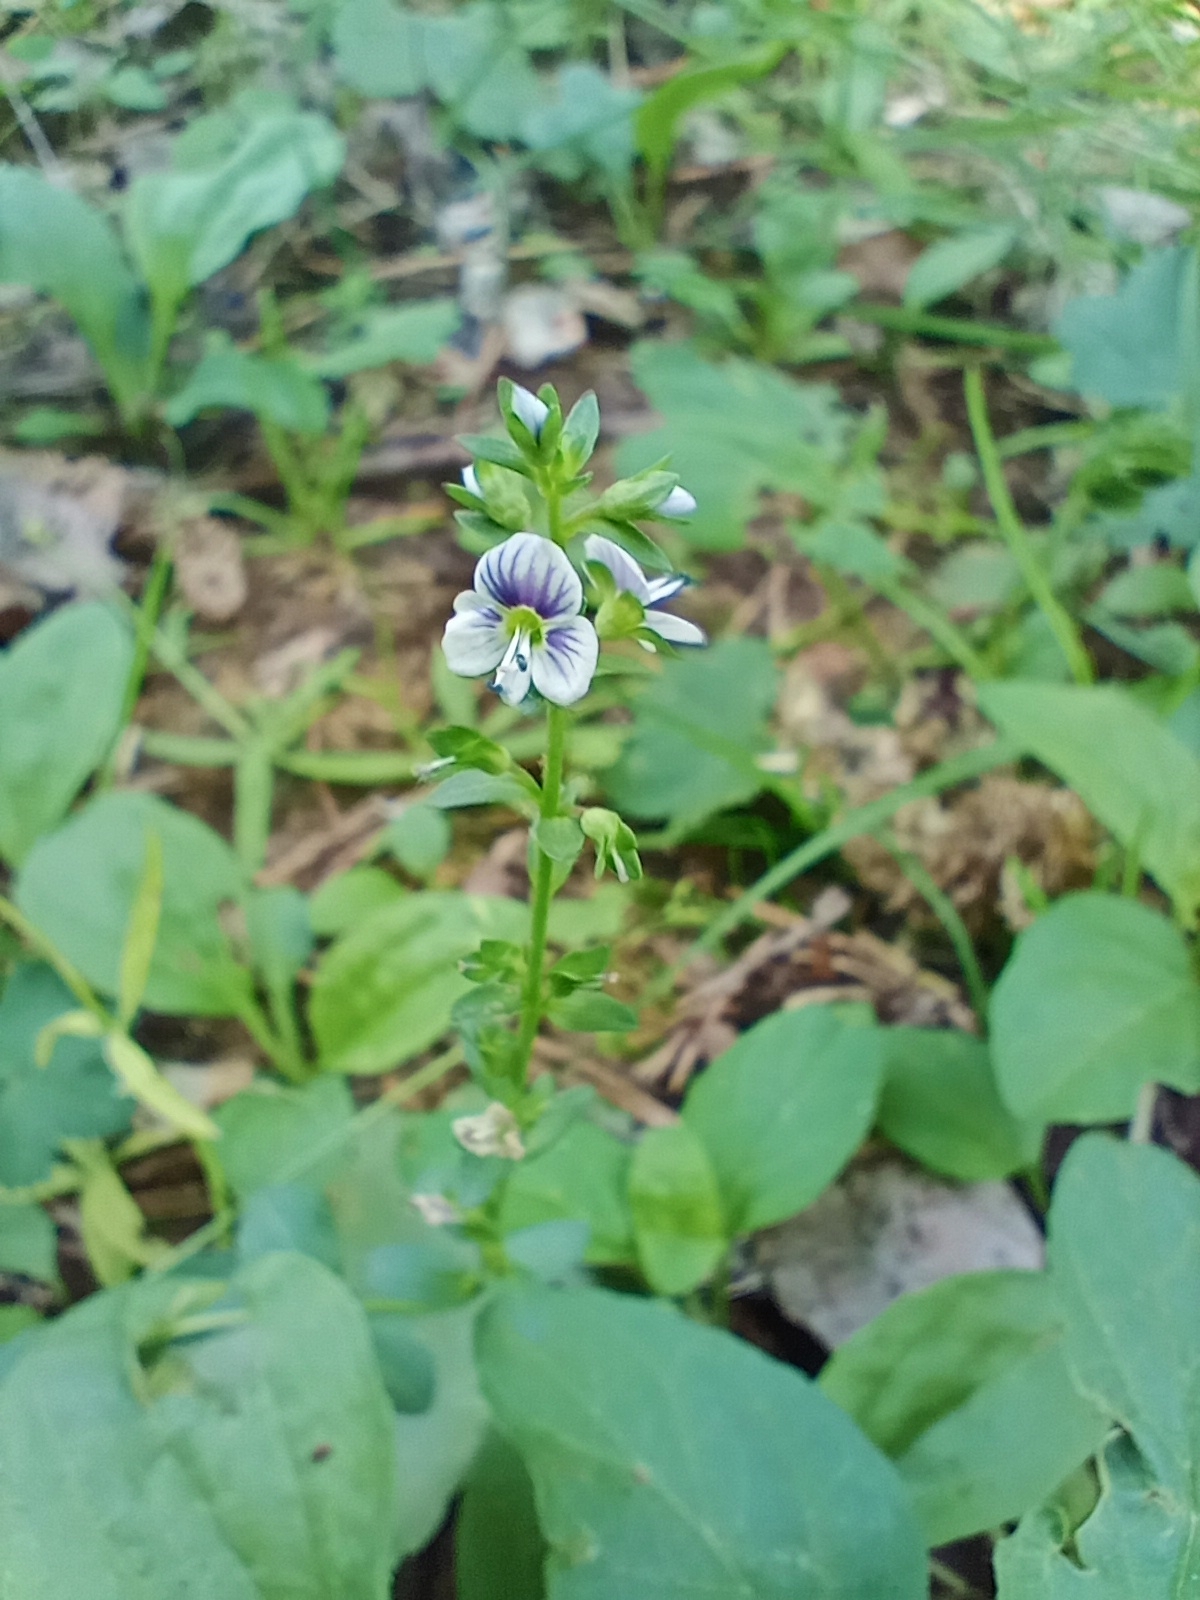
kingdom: Plantae
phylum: Tracheophyta
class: Magnoliopsida
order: Lamiales
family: Plantaginaceae
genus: Veronica
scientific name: Veronica serpyllifolia
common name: Thyme-leaved speedwell
